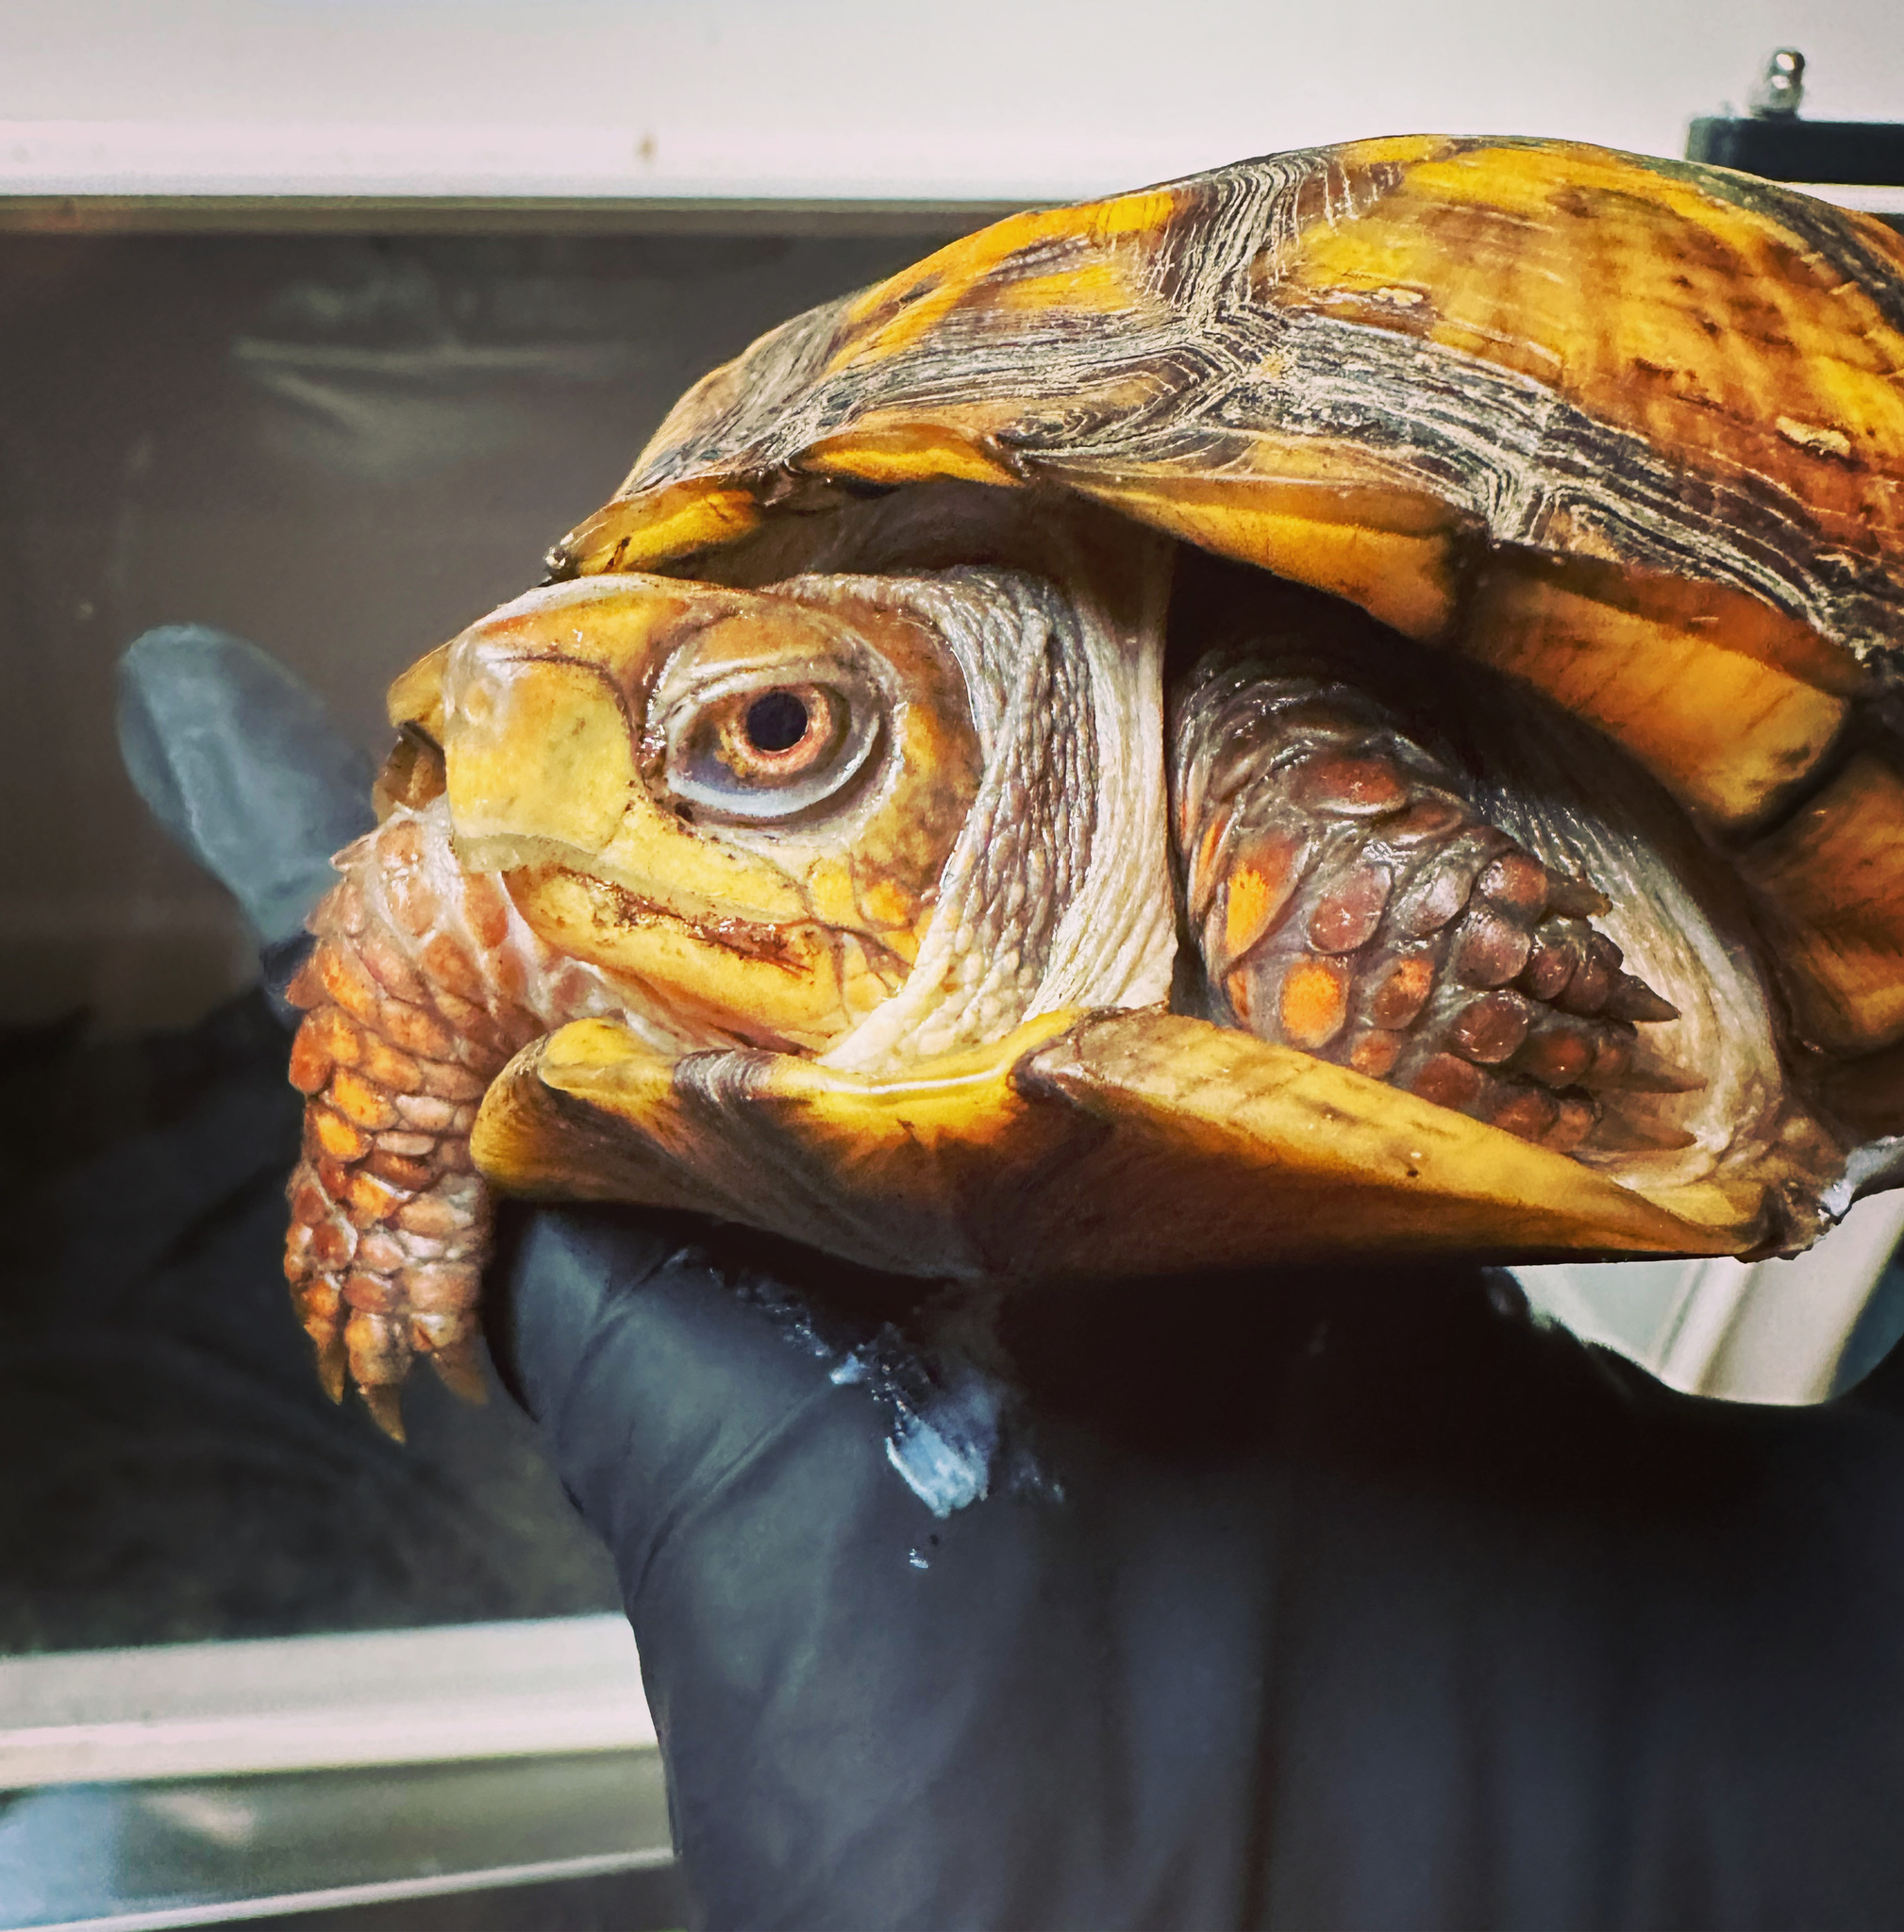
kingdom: Animalia
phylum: Chordata
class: Testudines
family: Emydidae
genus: Terrapene
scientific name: Terrapene carolina
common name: Common box turtle
